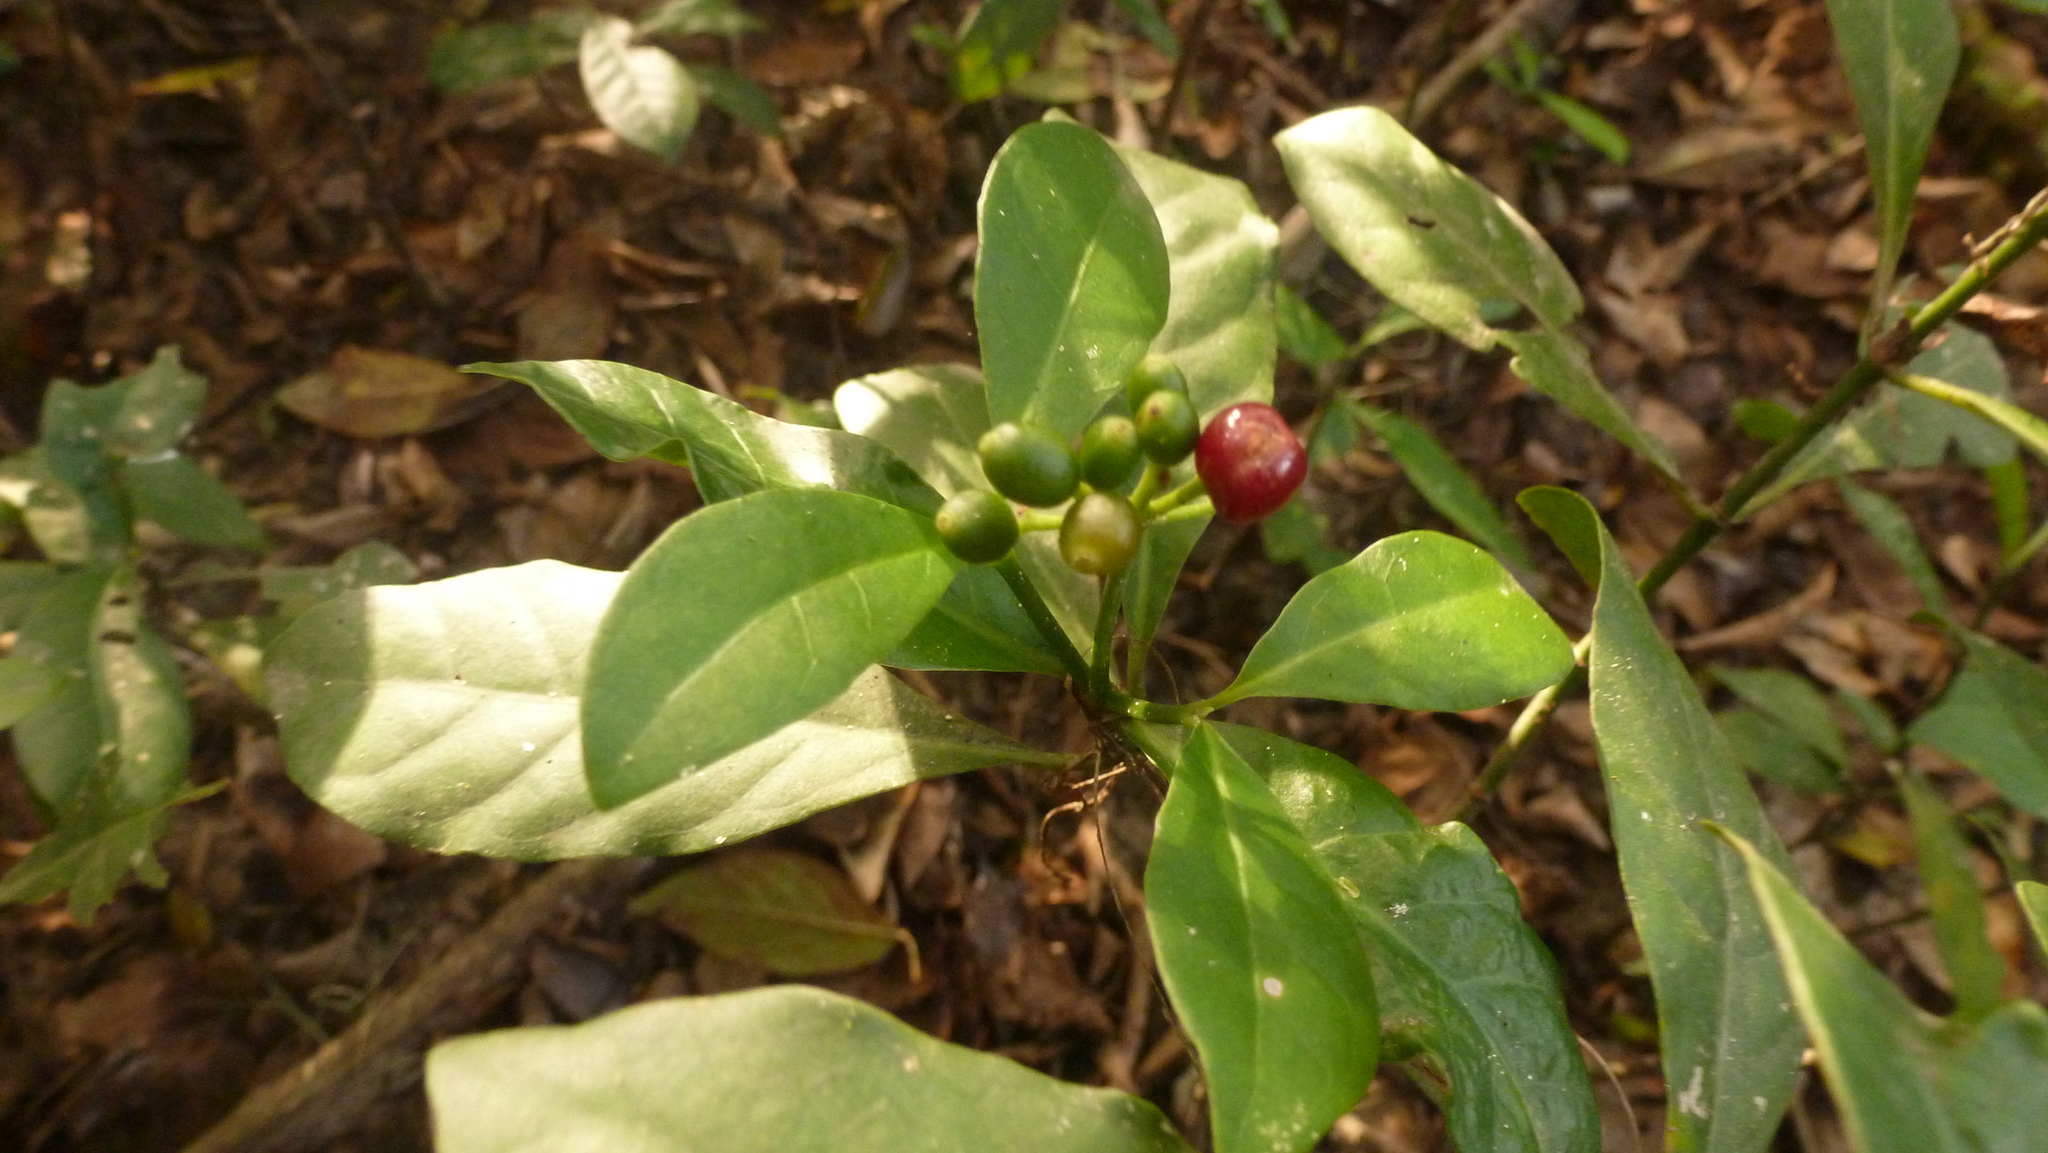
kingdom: Plantae
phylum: Tracheophyta
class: Magnoliopsida
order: Gentianales
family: Rubiaceae
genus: Psychotria
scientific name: Psychotria carthagenensis
